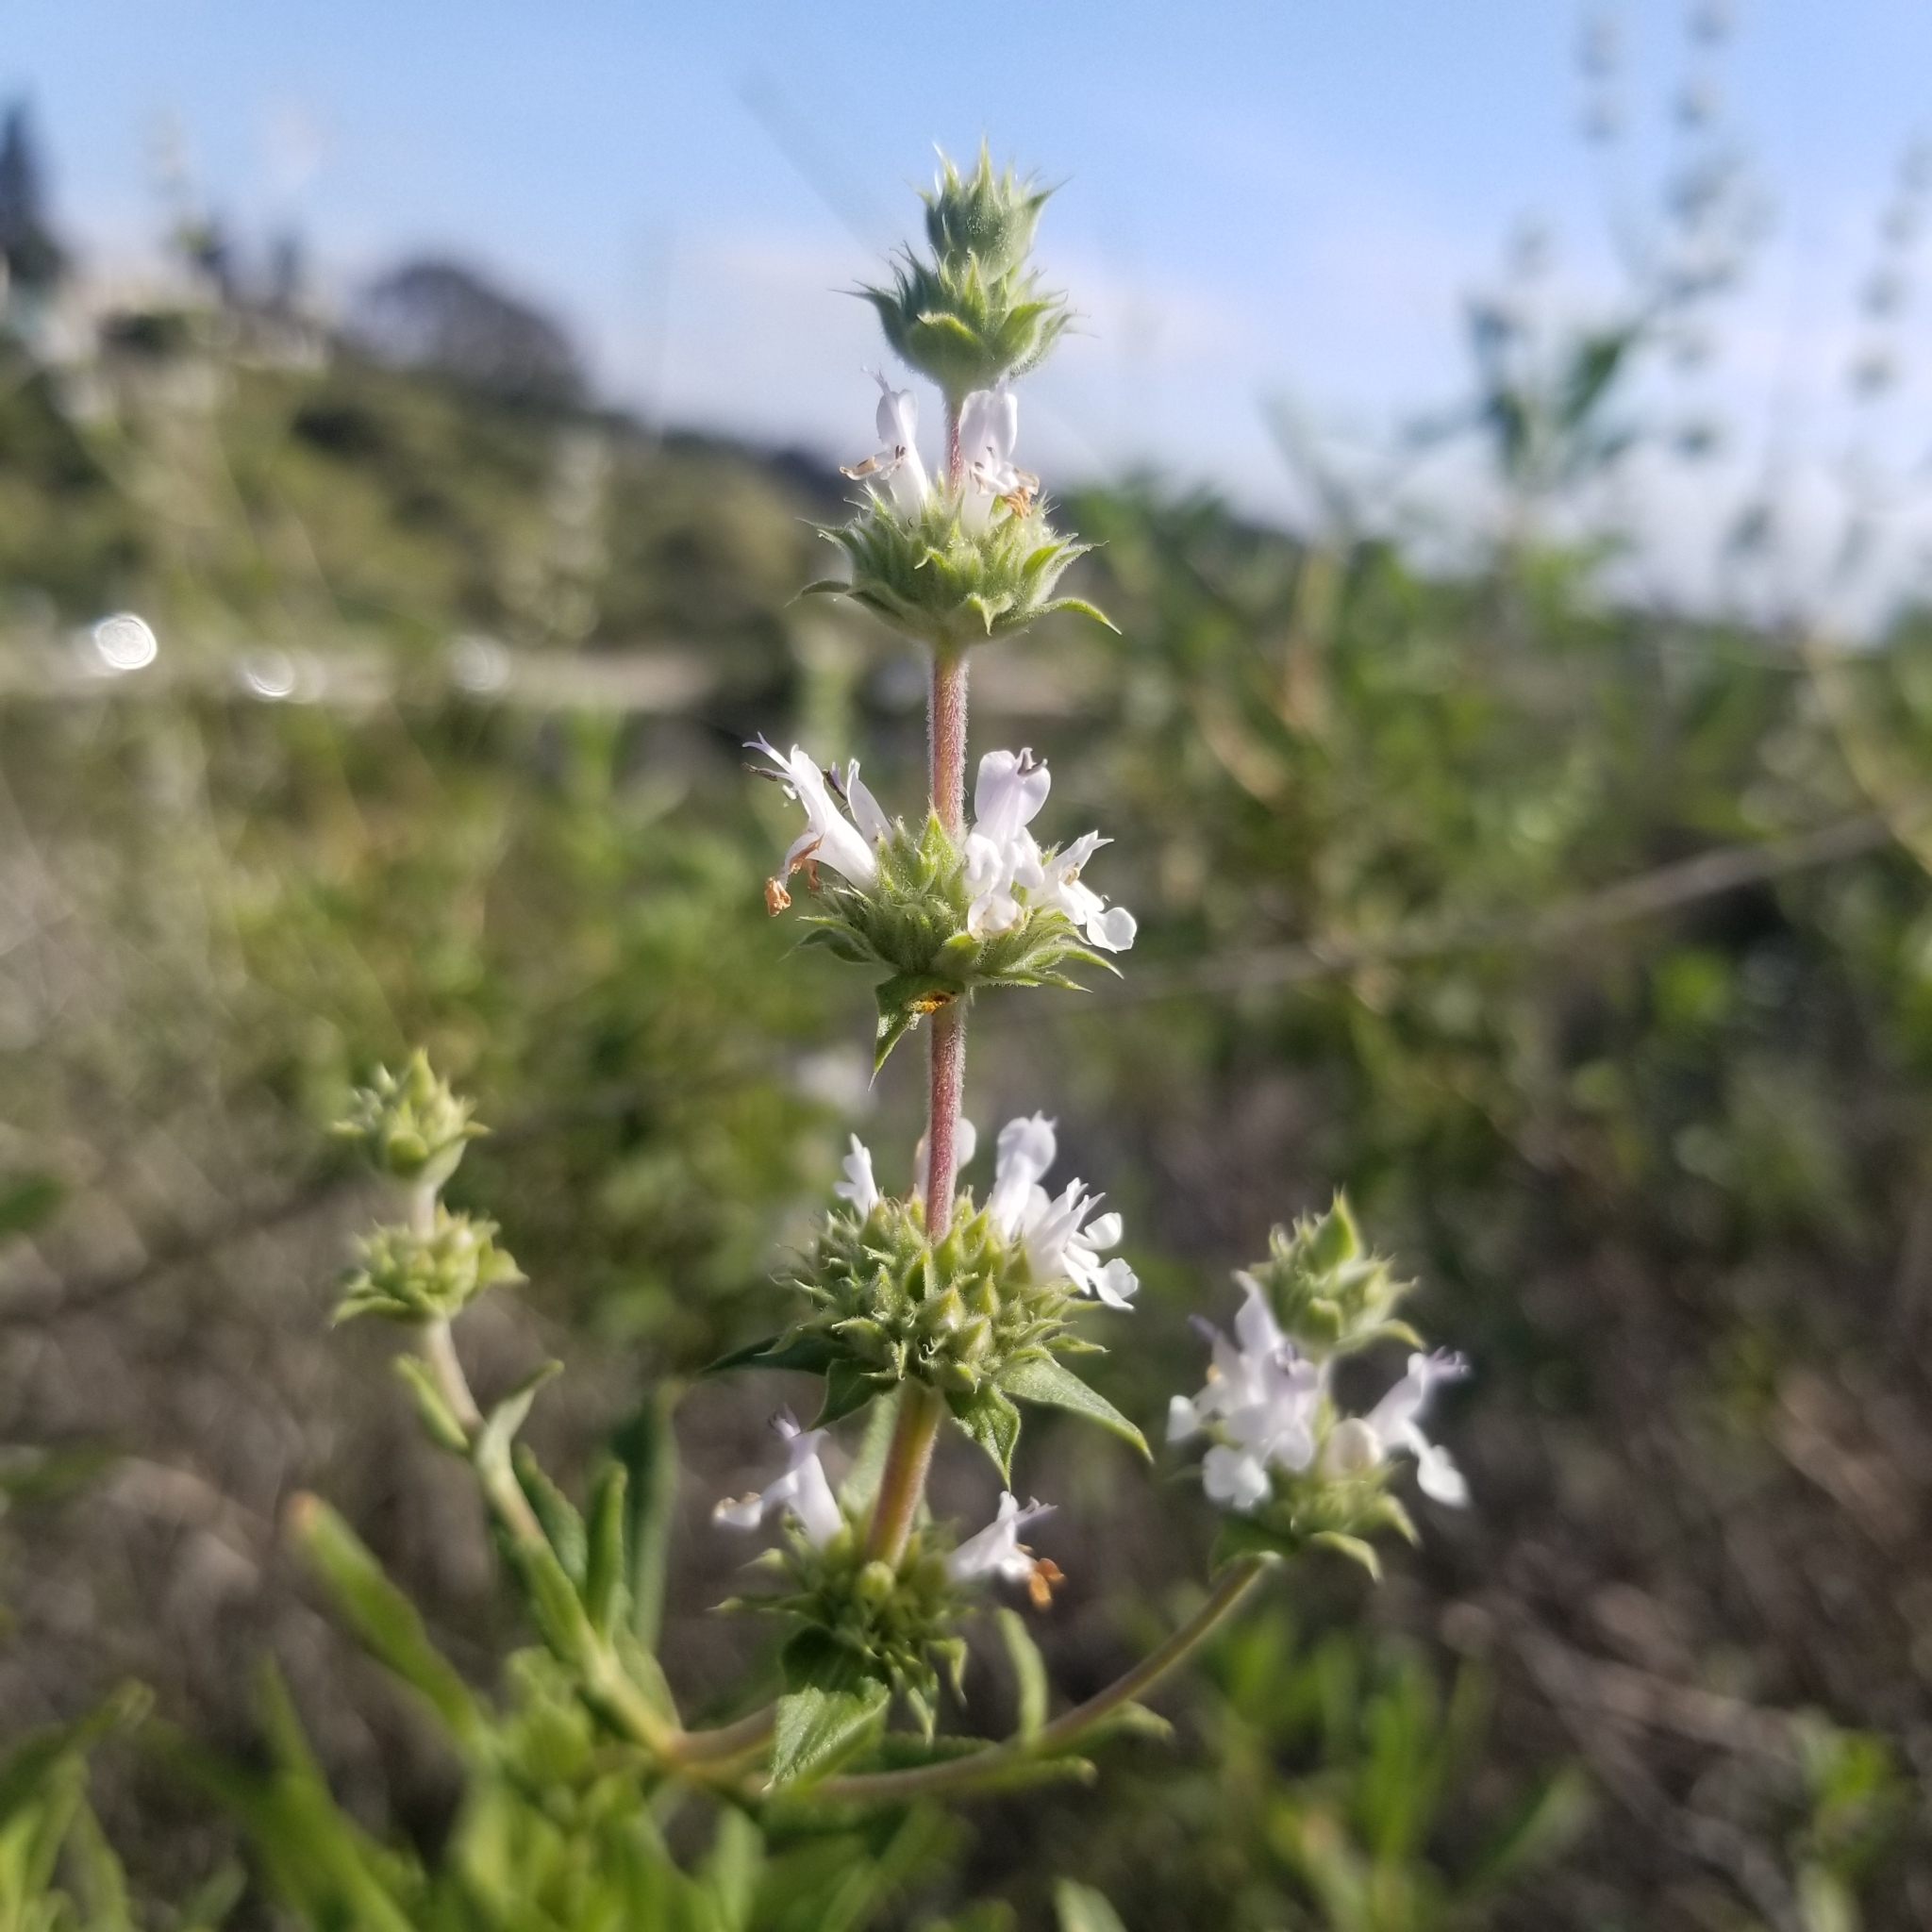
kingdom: Plantae
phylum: Tracheophyta
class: Magnoliopsida
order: Lamiales
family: Lamiaceae
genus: Salvia
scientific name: Salvia mellifera
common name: Black sage
